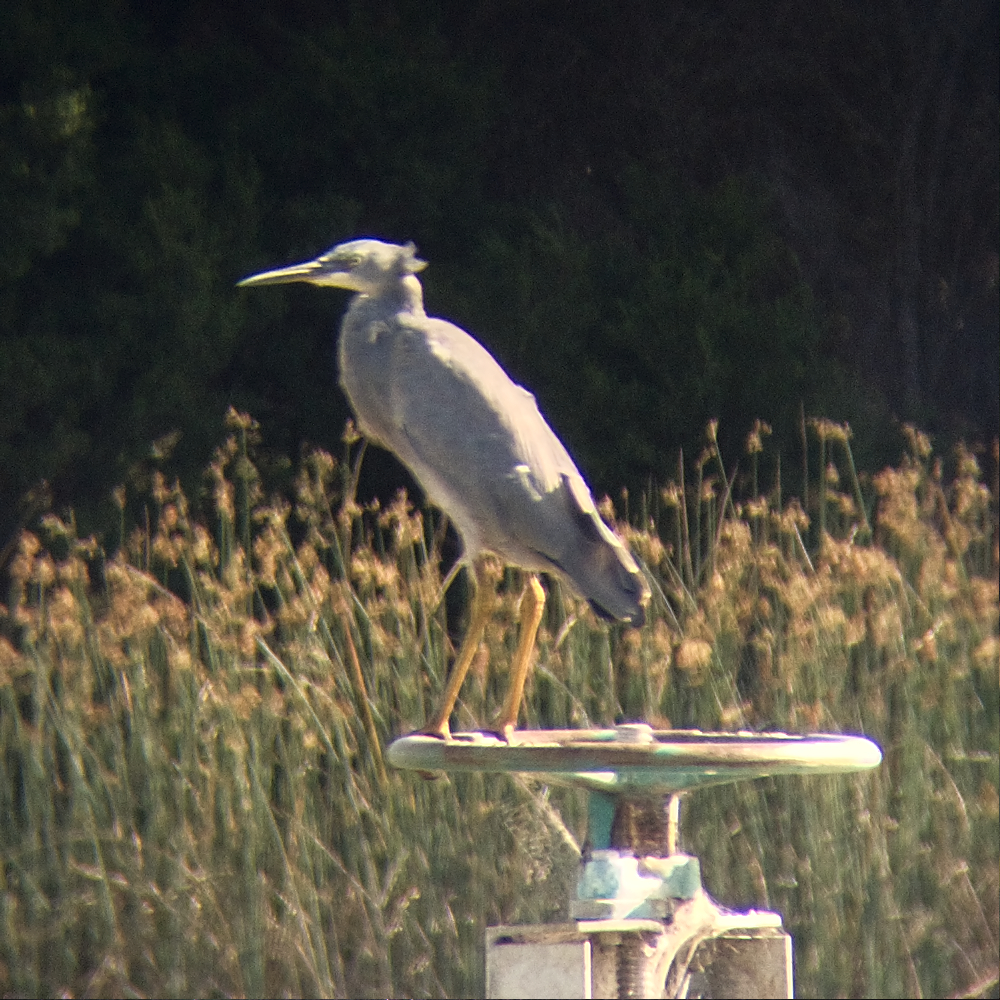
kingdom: Animalia
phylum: Chordata
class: Aves
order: Pelecaniformes
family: Ardeidae
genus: Egretta
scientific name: Egretta novaehollandiae
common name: White-faced heron
